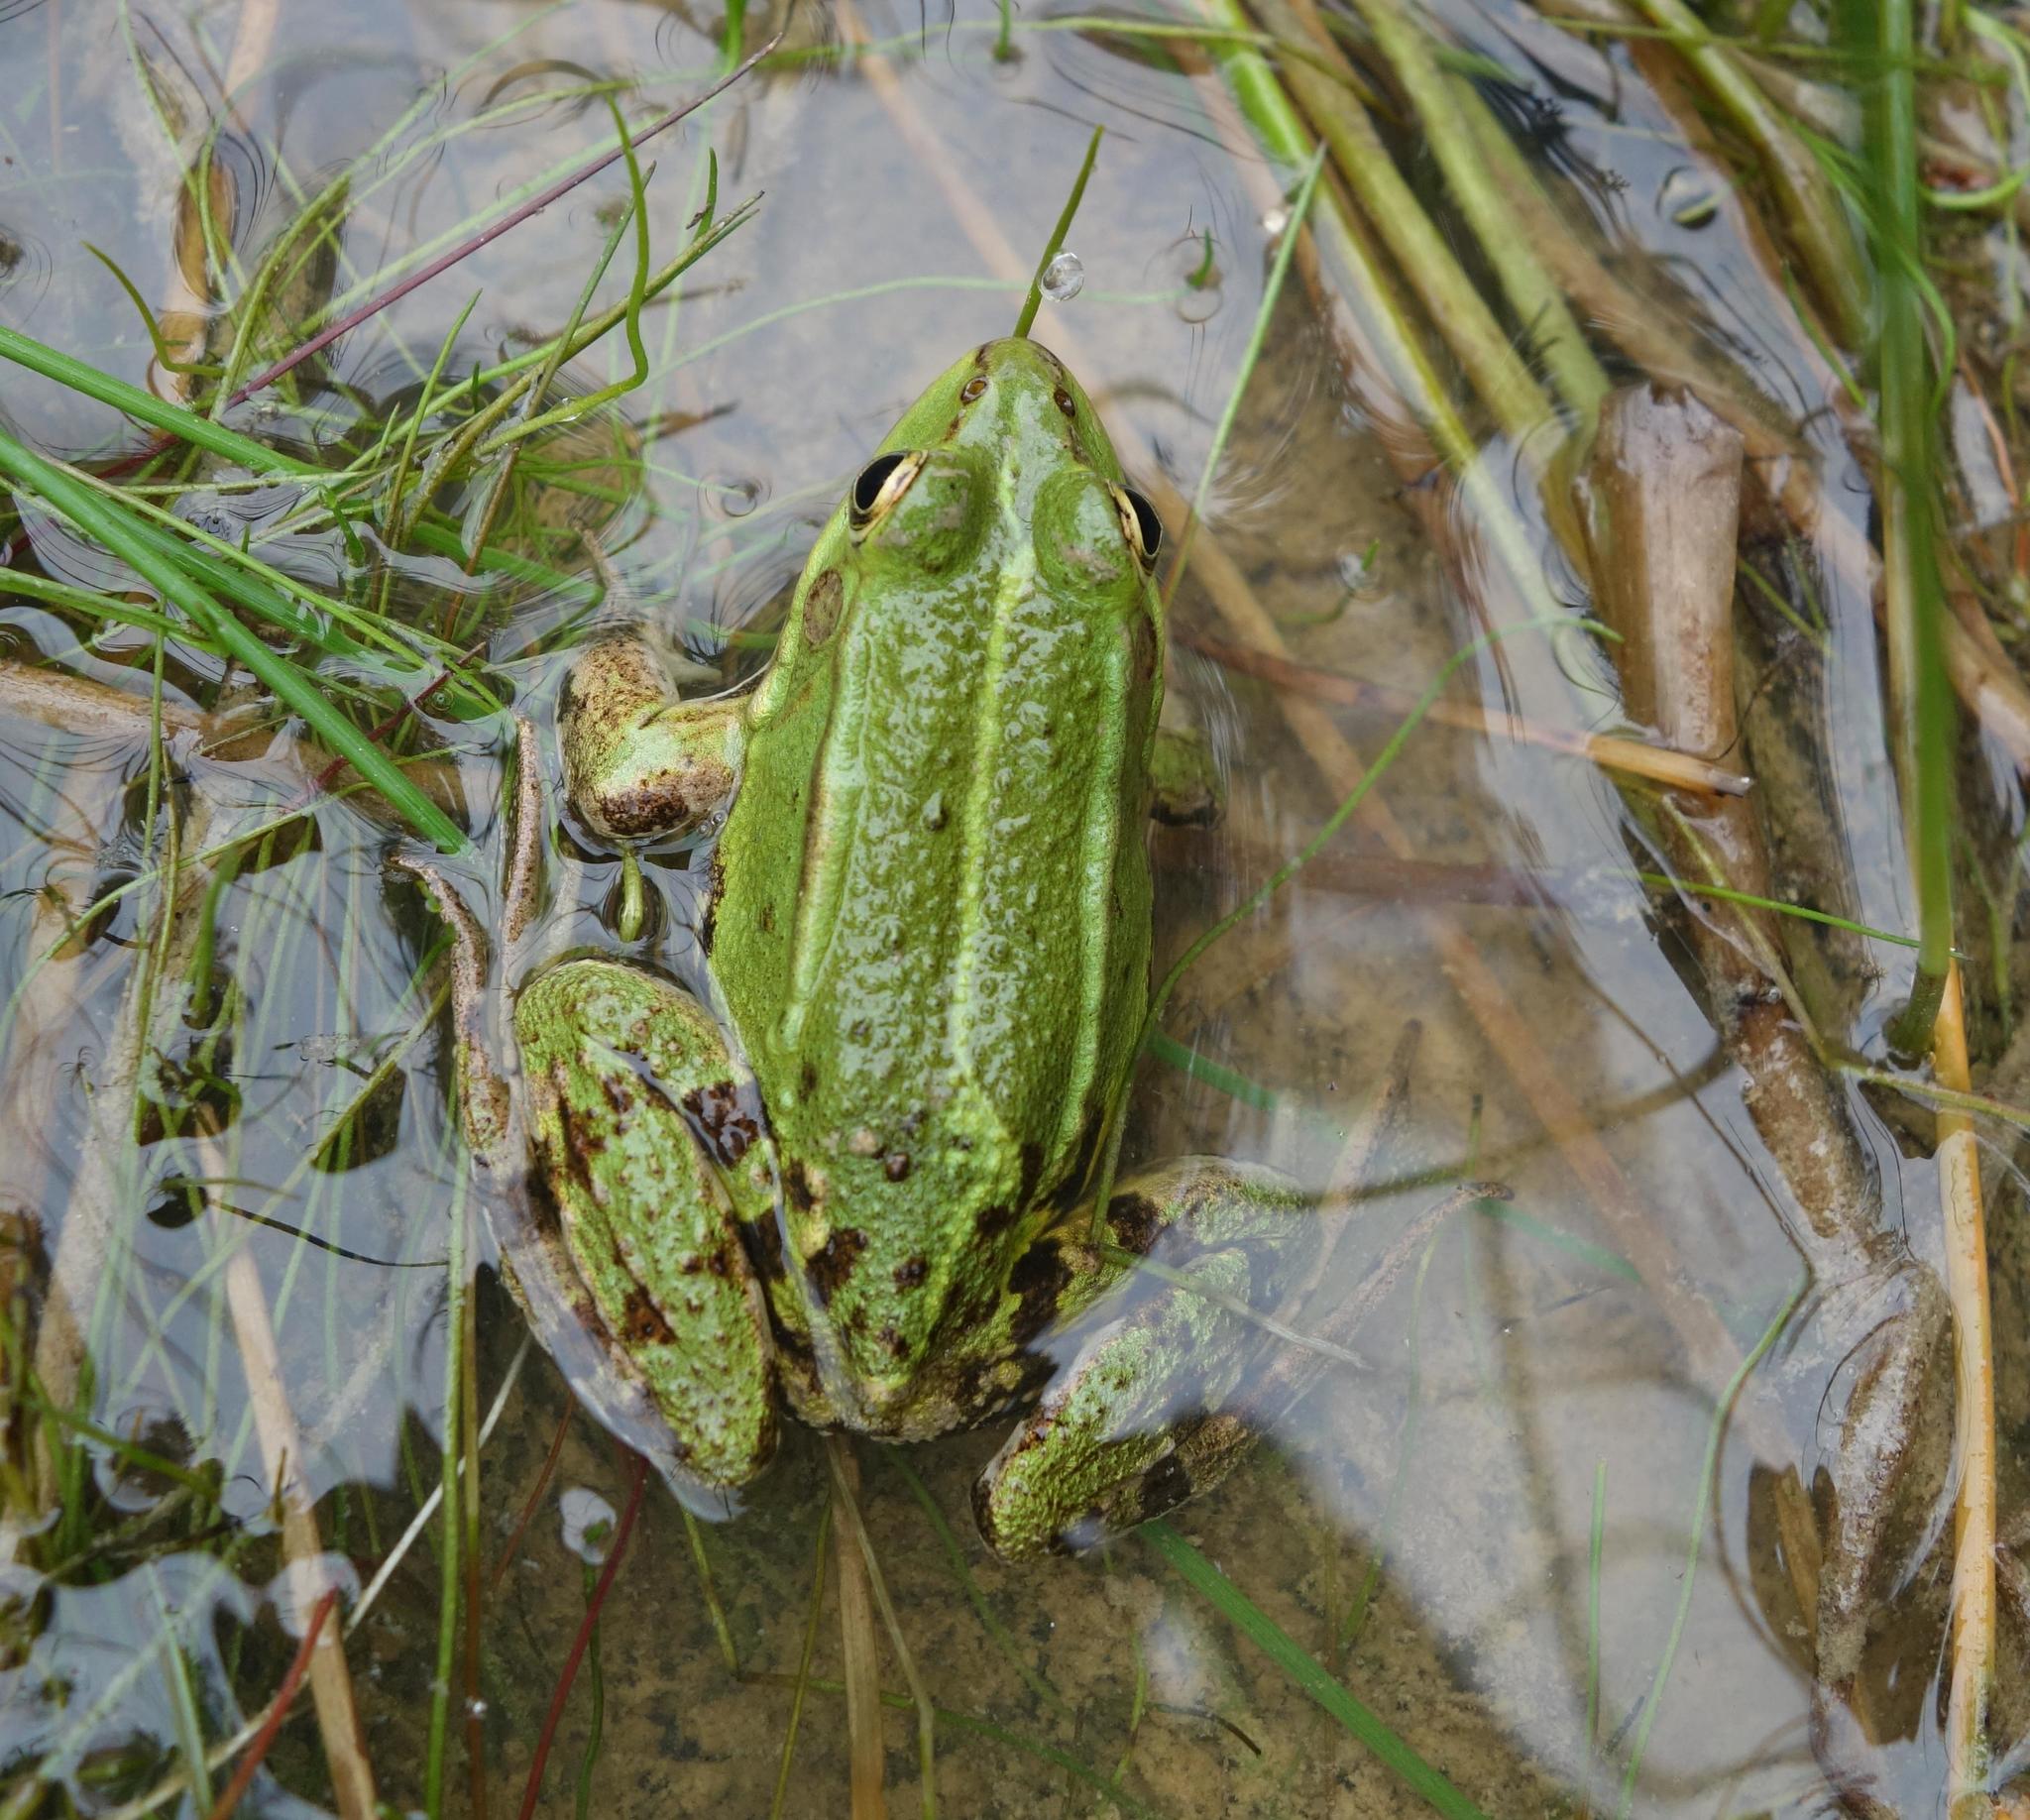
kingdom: Animalia
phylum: Chordata
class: Amphibia
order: Anura
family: Ranidae
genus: Pelophylax
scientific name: Pelophylax
